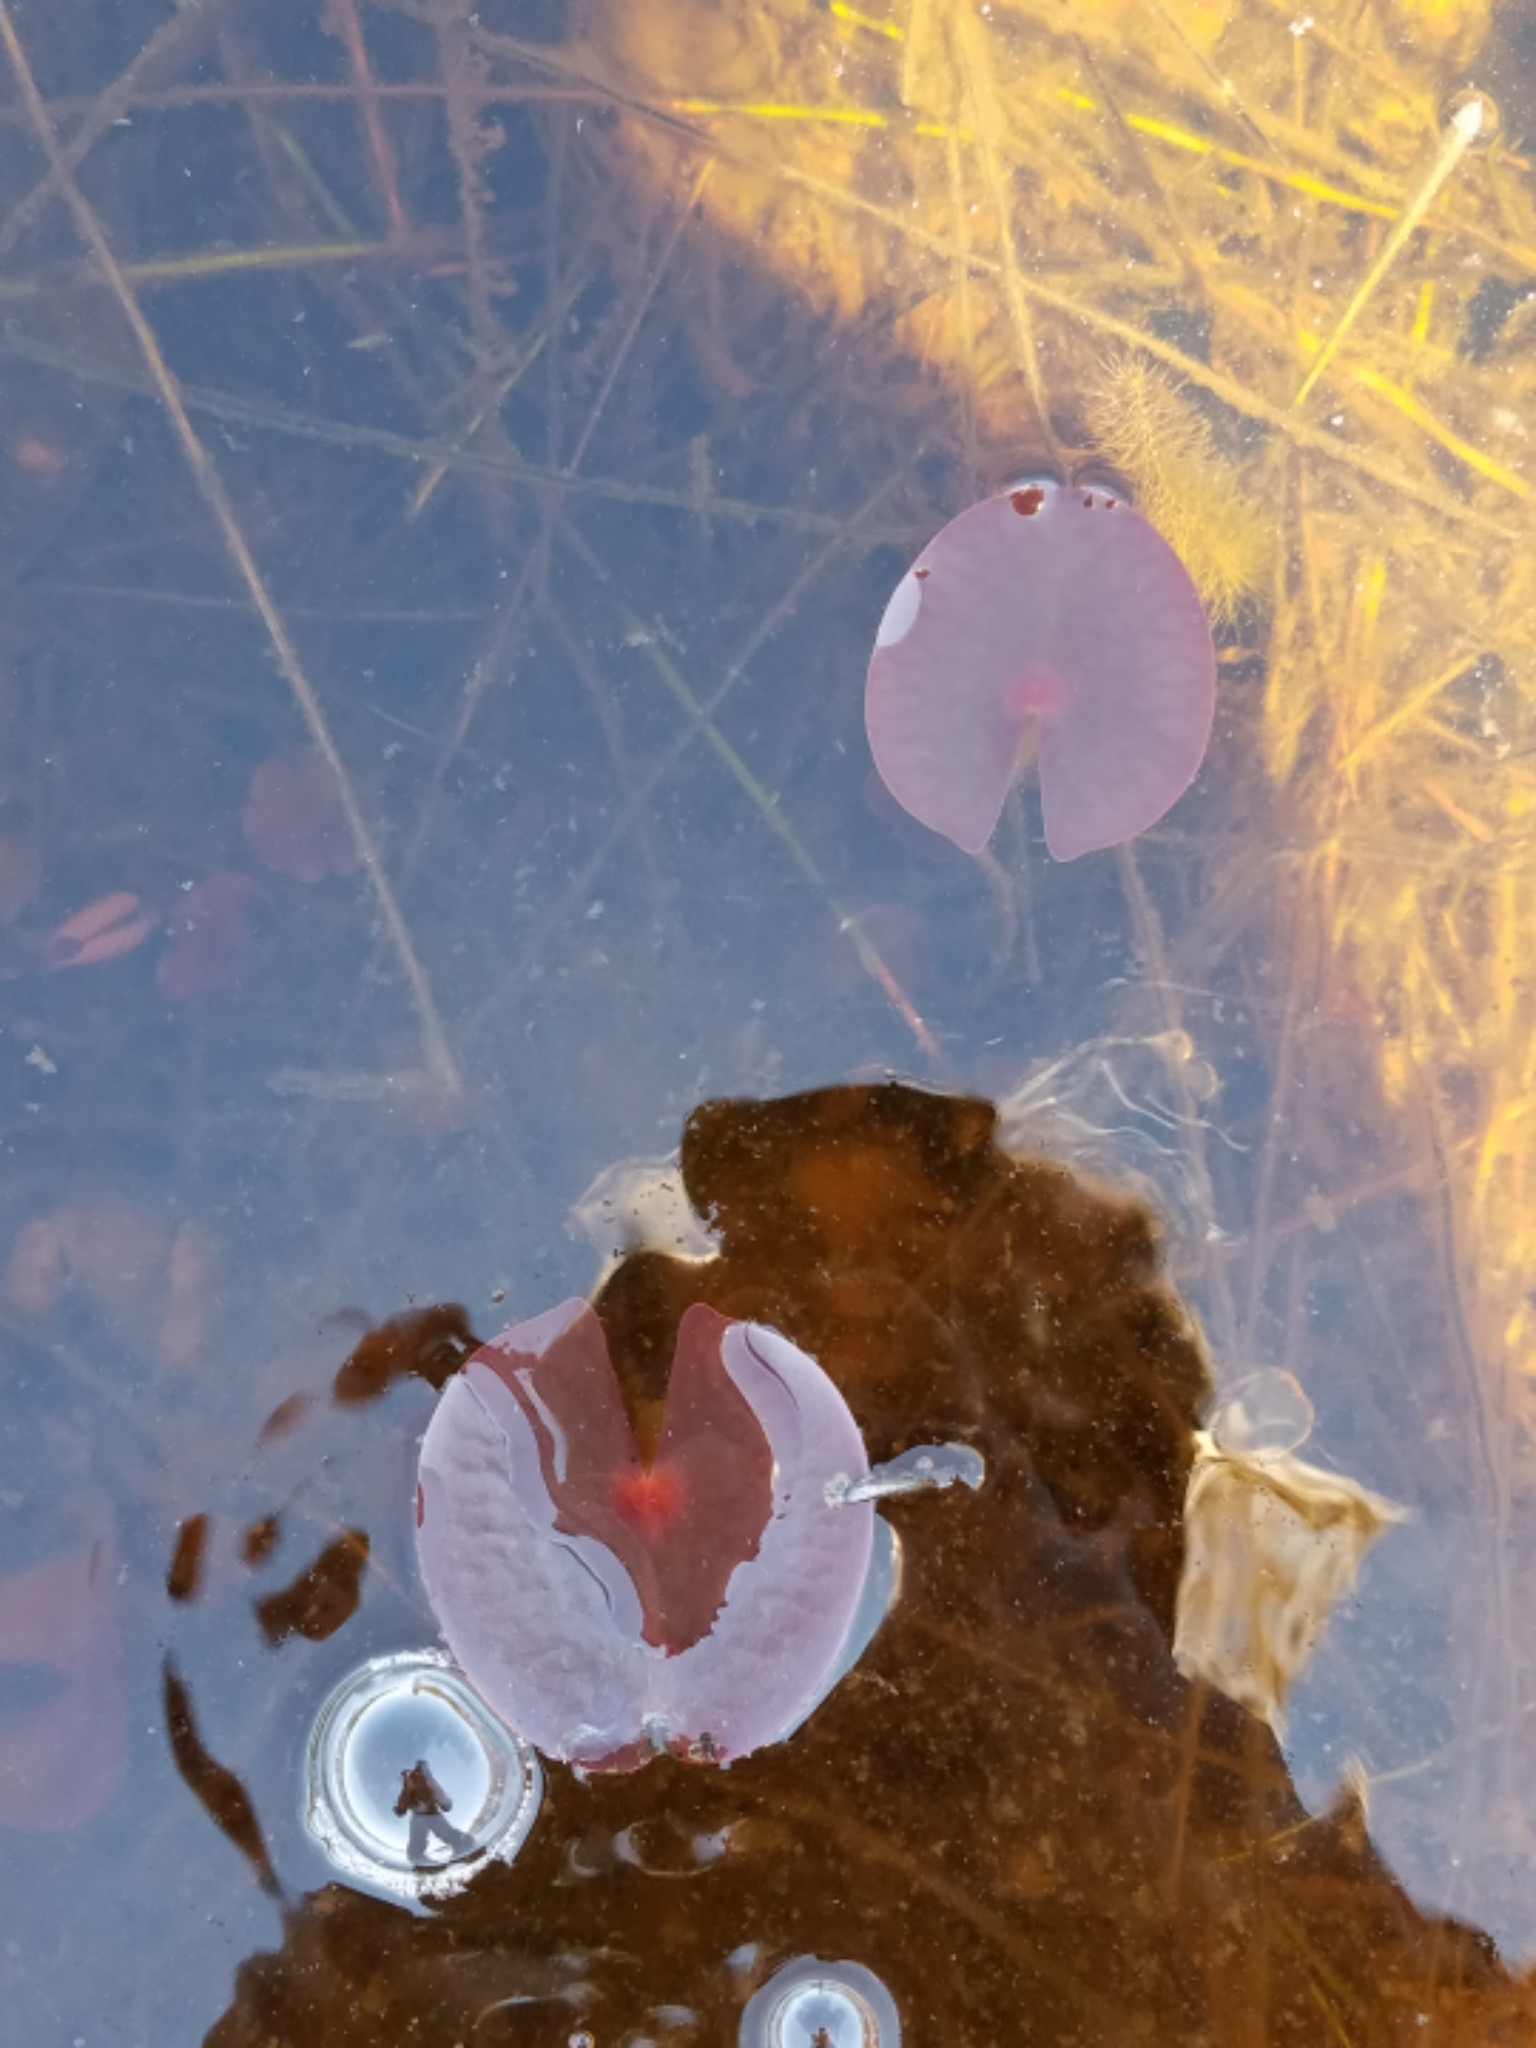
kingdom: Plantae
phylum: Tracheophyta
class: Magnoliopsida
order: Nymphaeales
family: Nymphaeaceae
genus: Nymphaea
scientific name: Nymphaea odorata
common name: Fragrant water-lily
